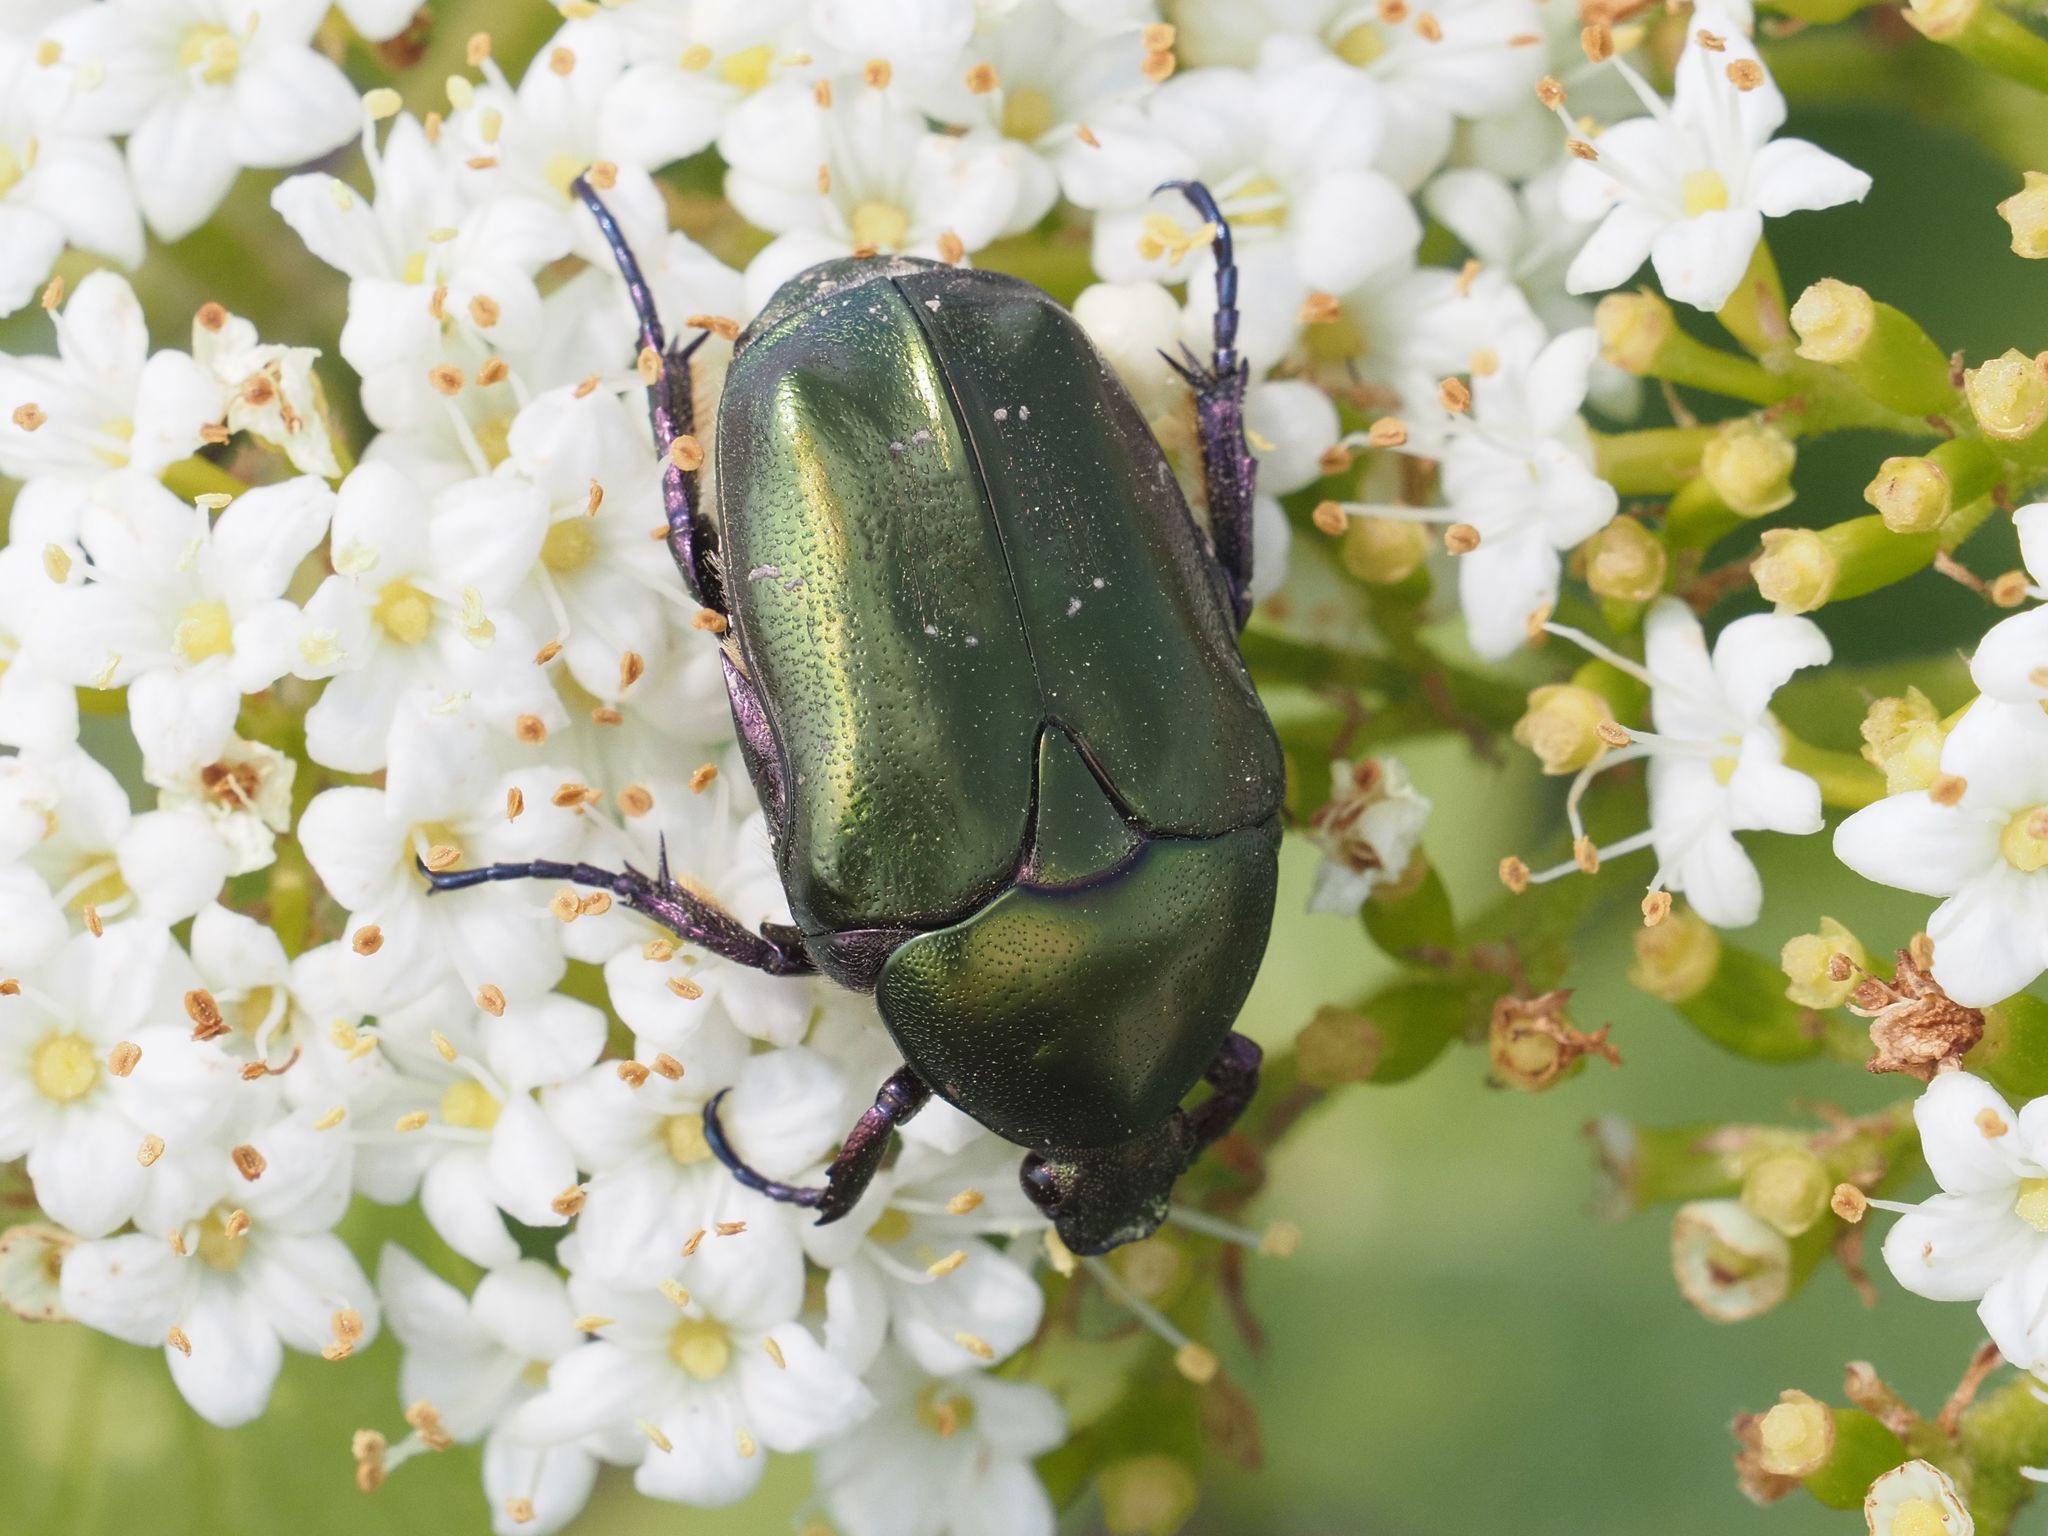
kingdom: Animalia
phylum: Arthropoda
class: Insecta
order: Coleoptera
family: Scarabaeidae
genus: Protaetia
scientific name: Protaetia cuprea
